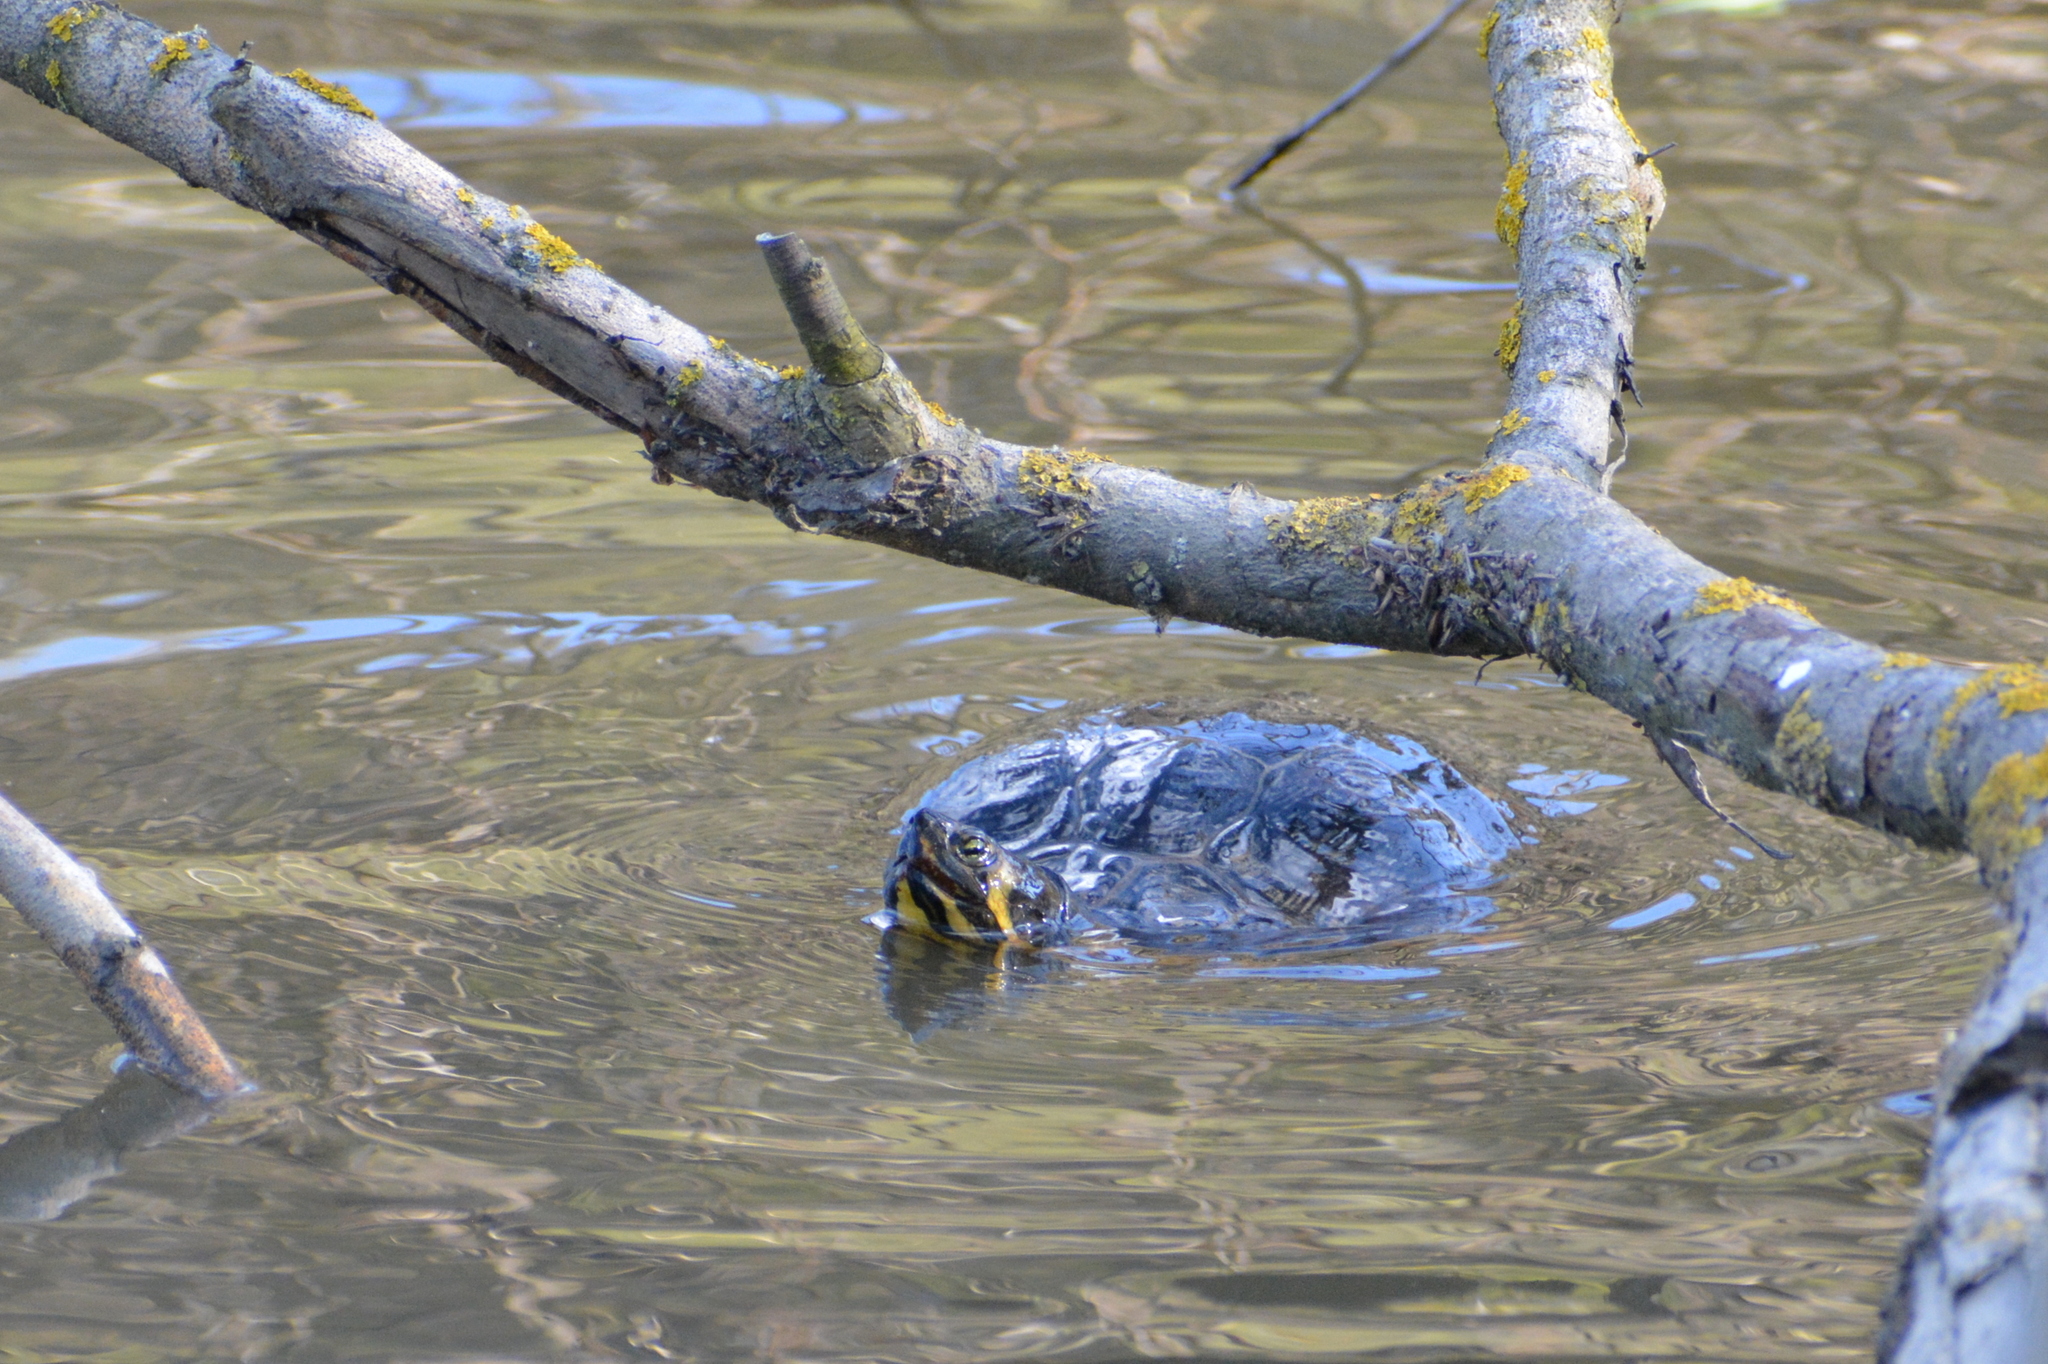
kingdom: Animalia
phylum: Chordata
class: Testudines
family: Emydidae
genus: Trachemys
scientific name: Trachemys scripta
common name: Slider
